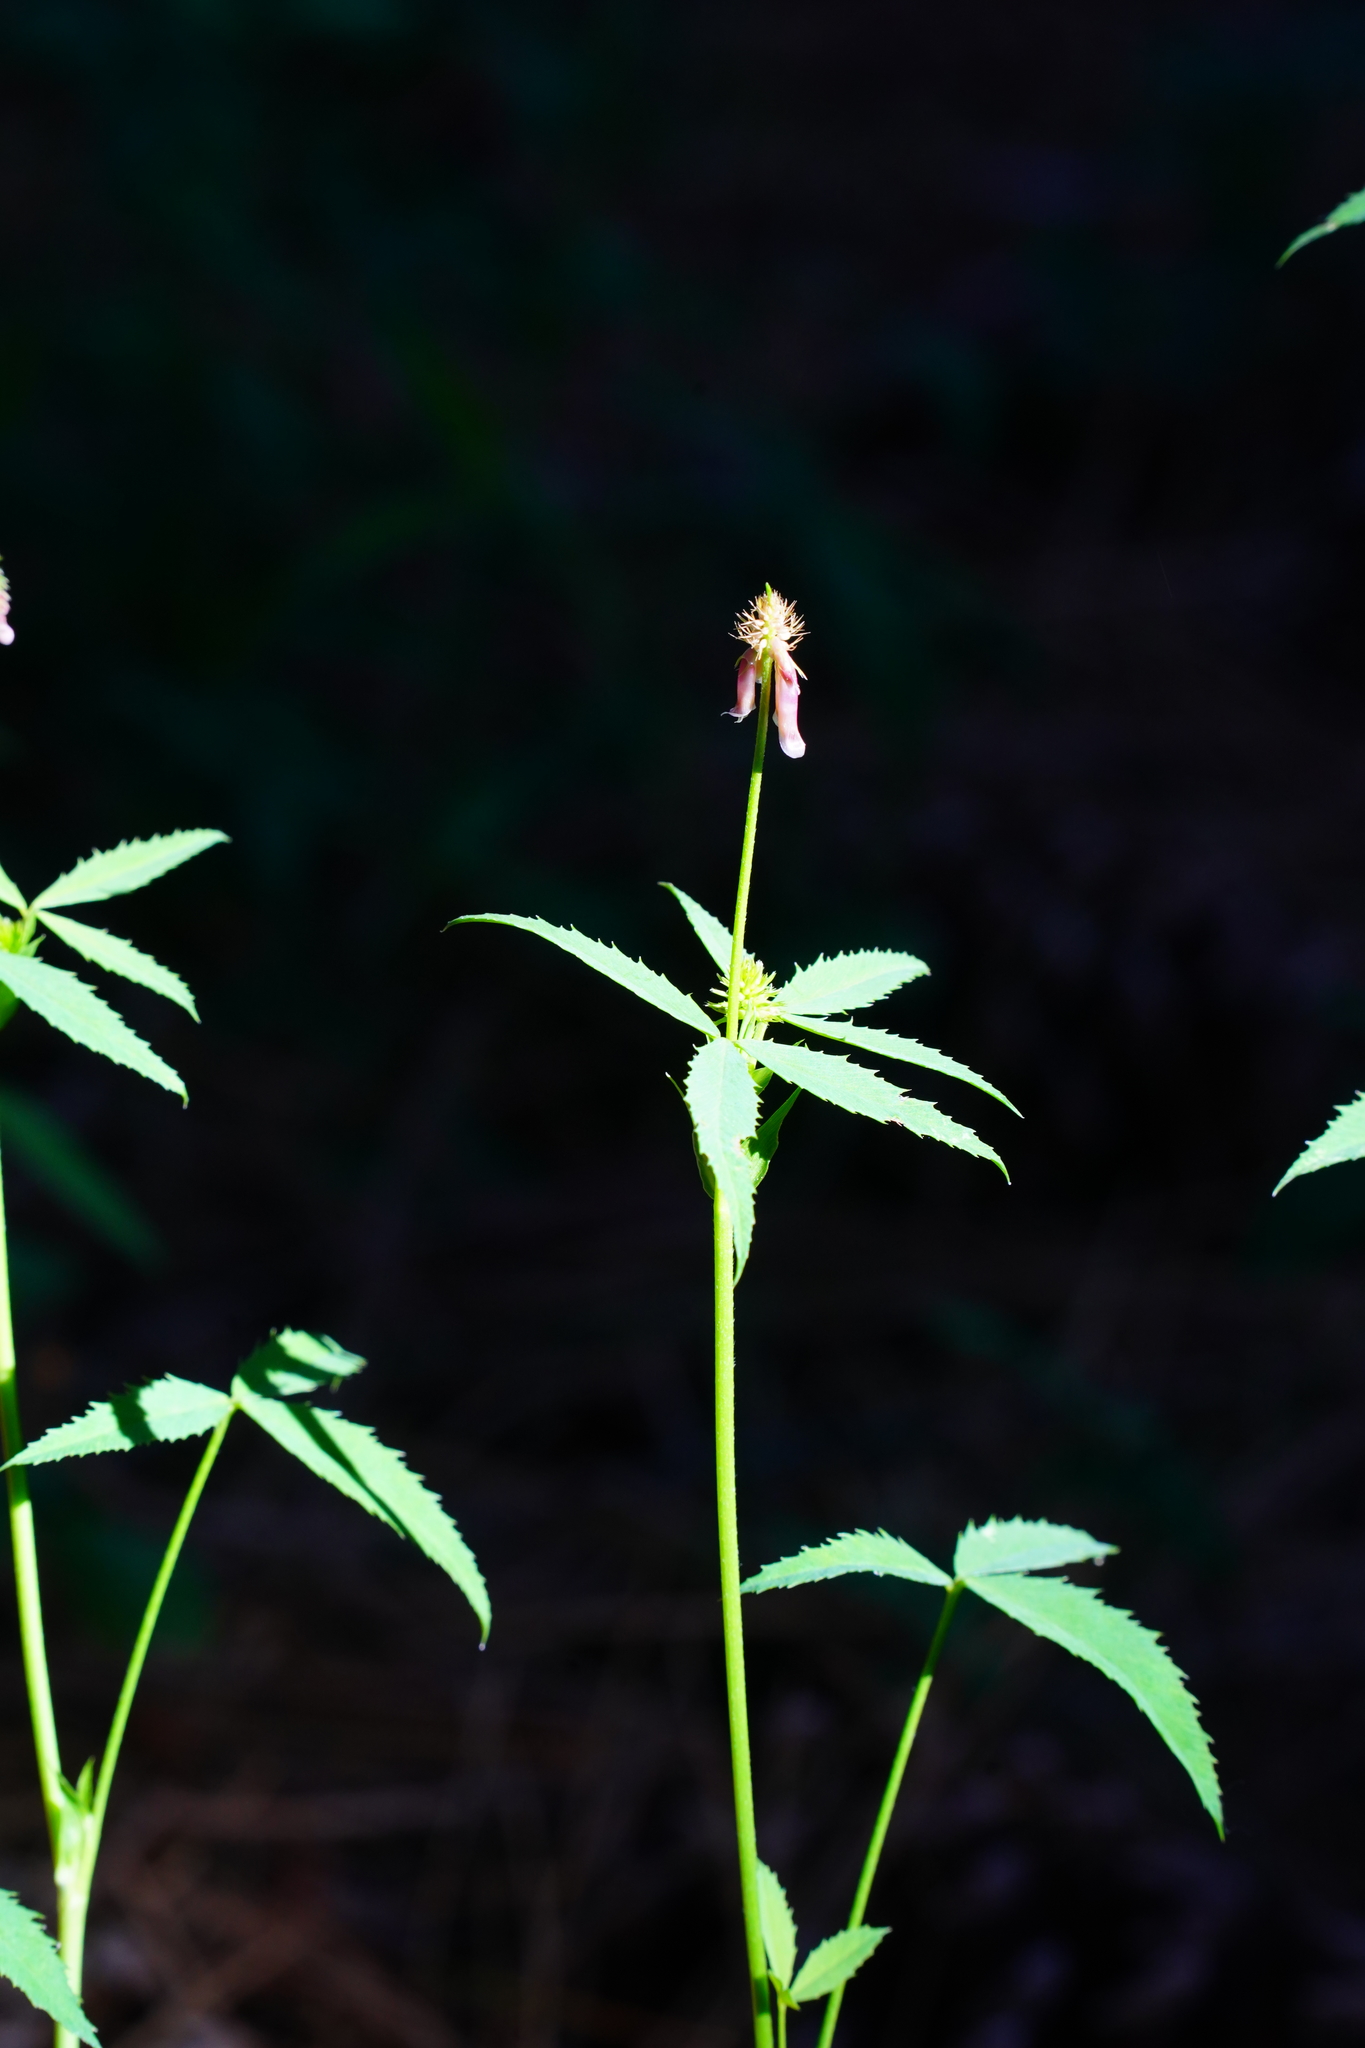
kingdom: Plantae
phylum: Tracheophyta
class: Magnoliopsida
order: Rosales
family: Rosaceae
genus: Comarum
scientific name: Comarum palustre
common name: Marsh cinquefoil
